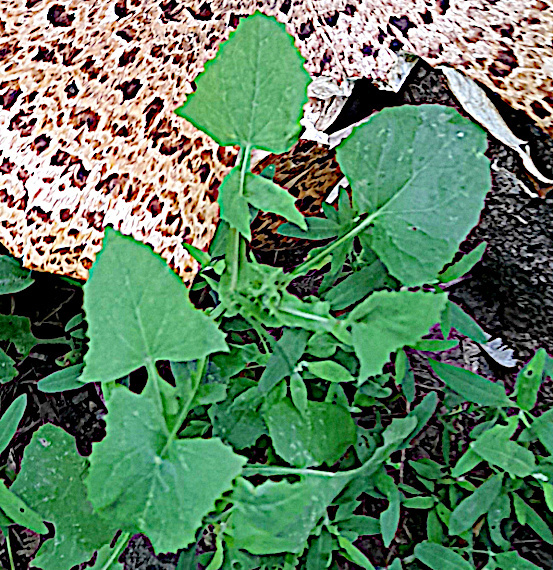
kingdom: Plantae
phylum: Tracheophyta
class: Magnoliopsida
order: Asterales
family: Asteraceae
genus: Sonchus
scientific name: Sonchus oleraceus
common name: Common sowthistle
